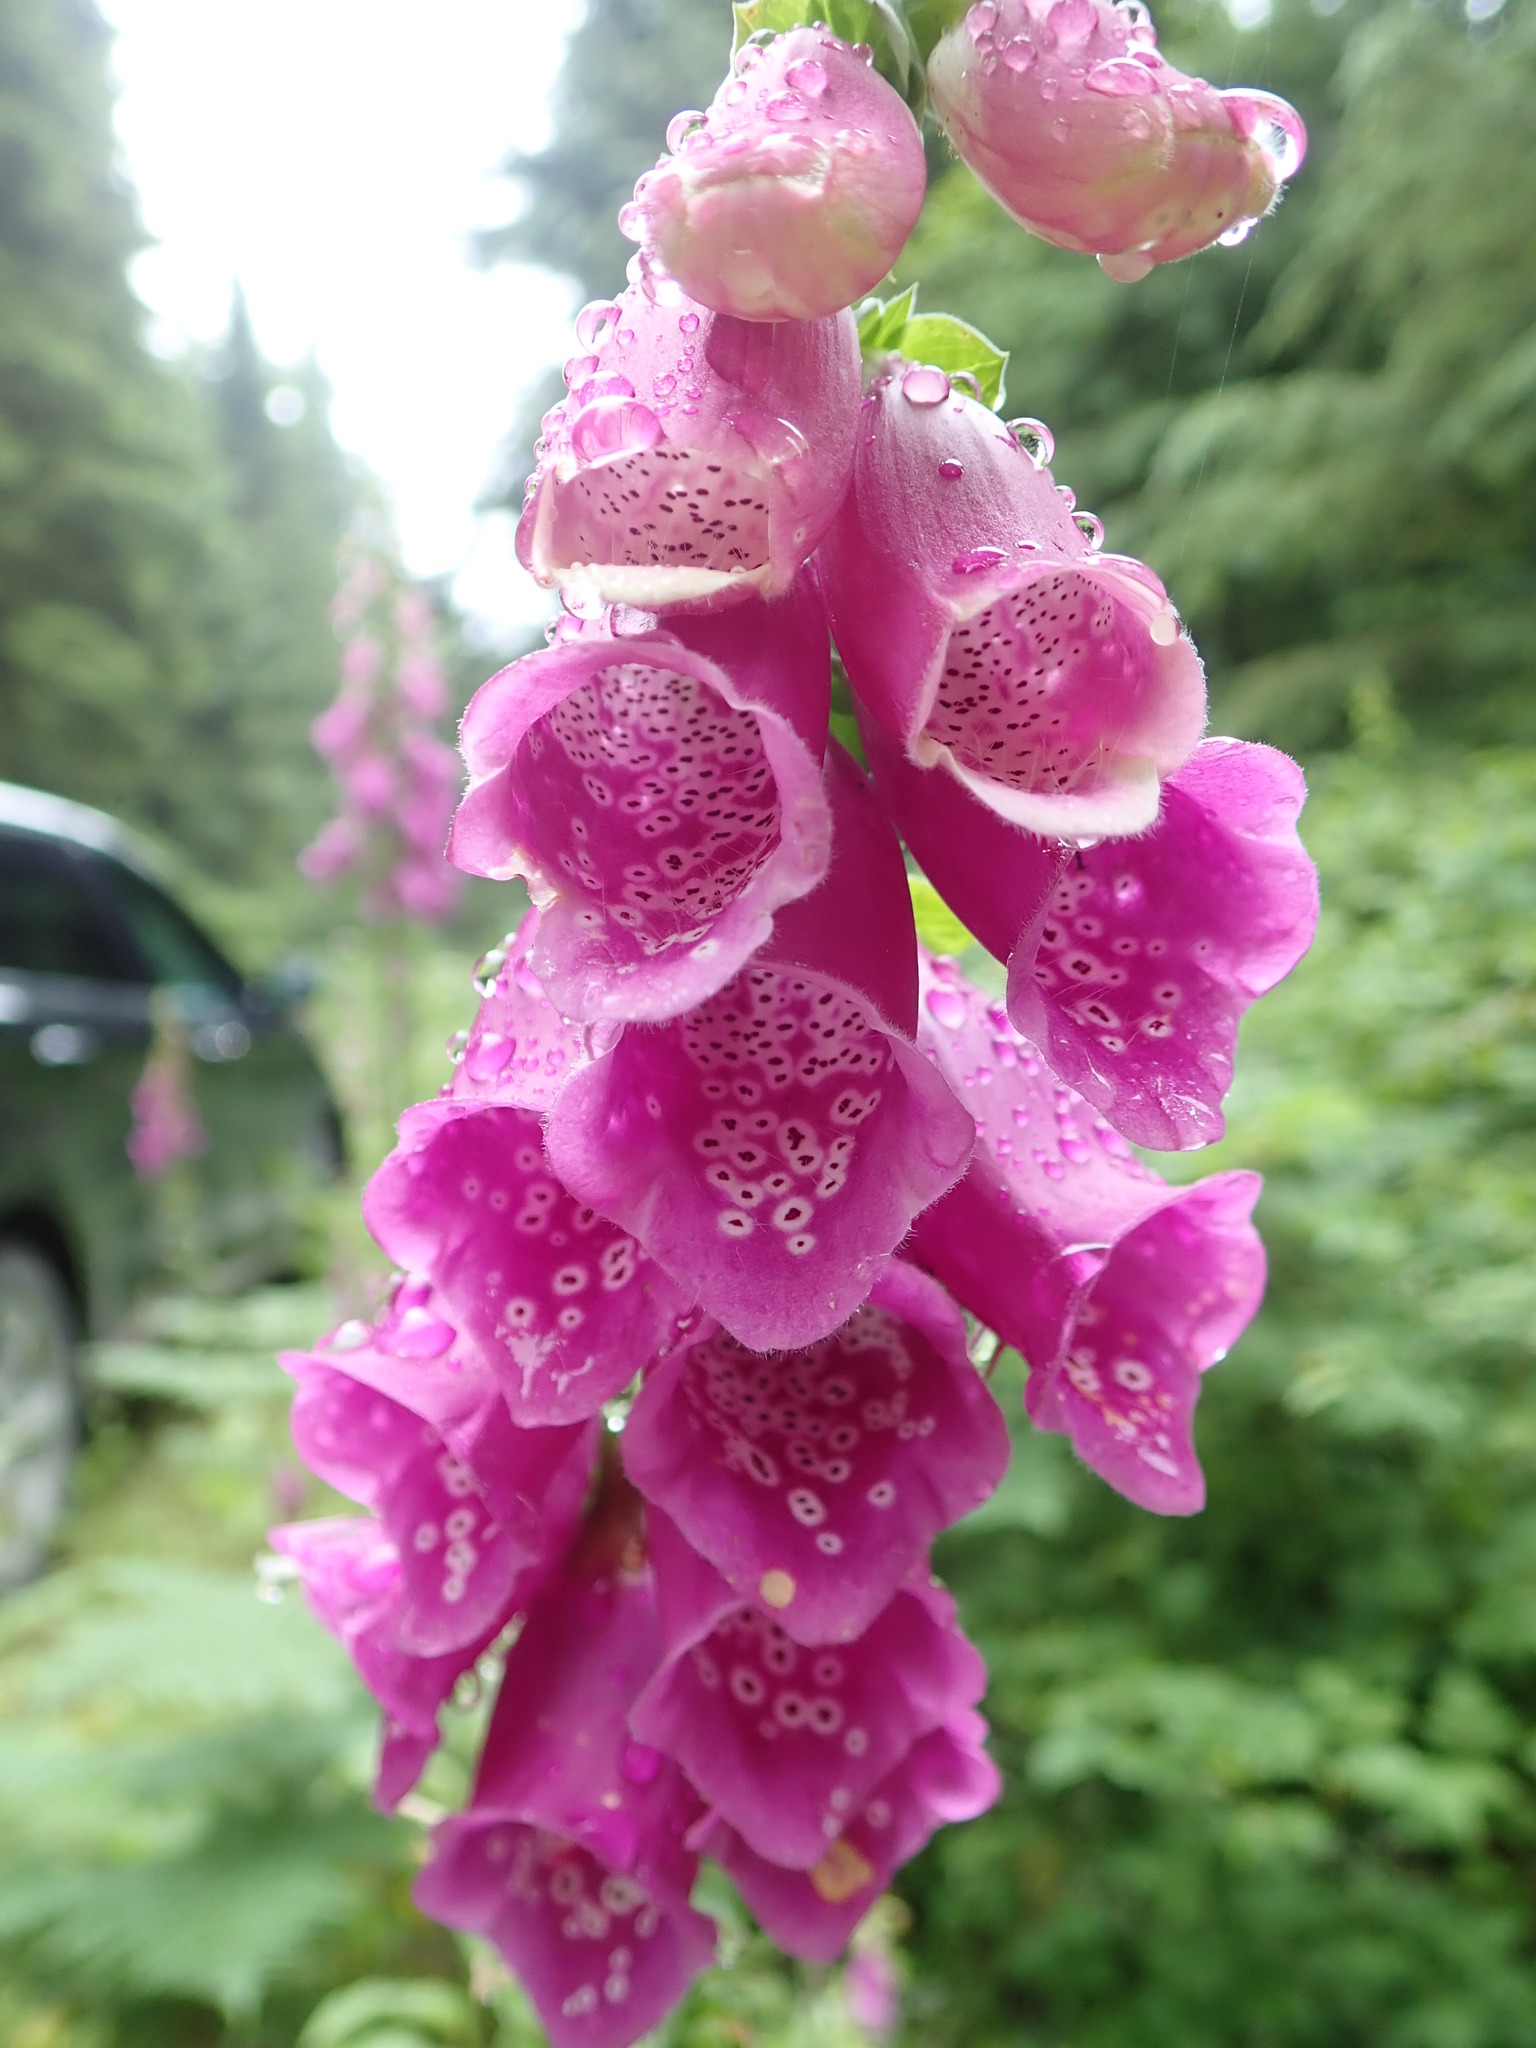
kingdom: Plantae
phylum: Tracheophyta
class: Magnoliopsida
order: Lamiales
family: Plantaginaceae
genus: Digitalis
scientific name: Digitalis purpurea
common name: Foxglove
